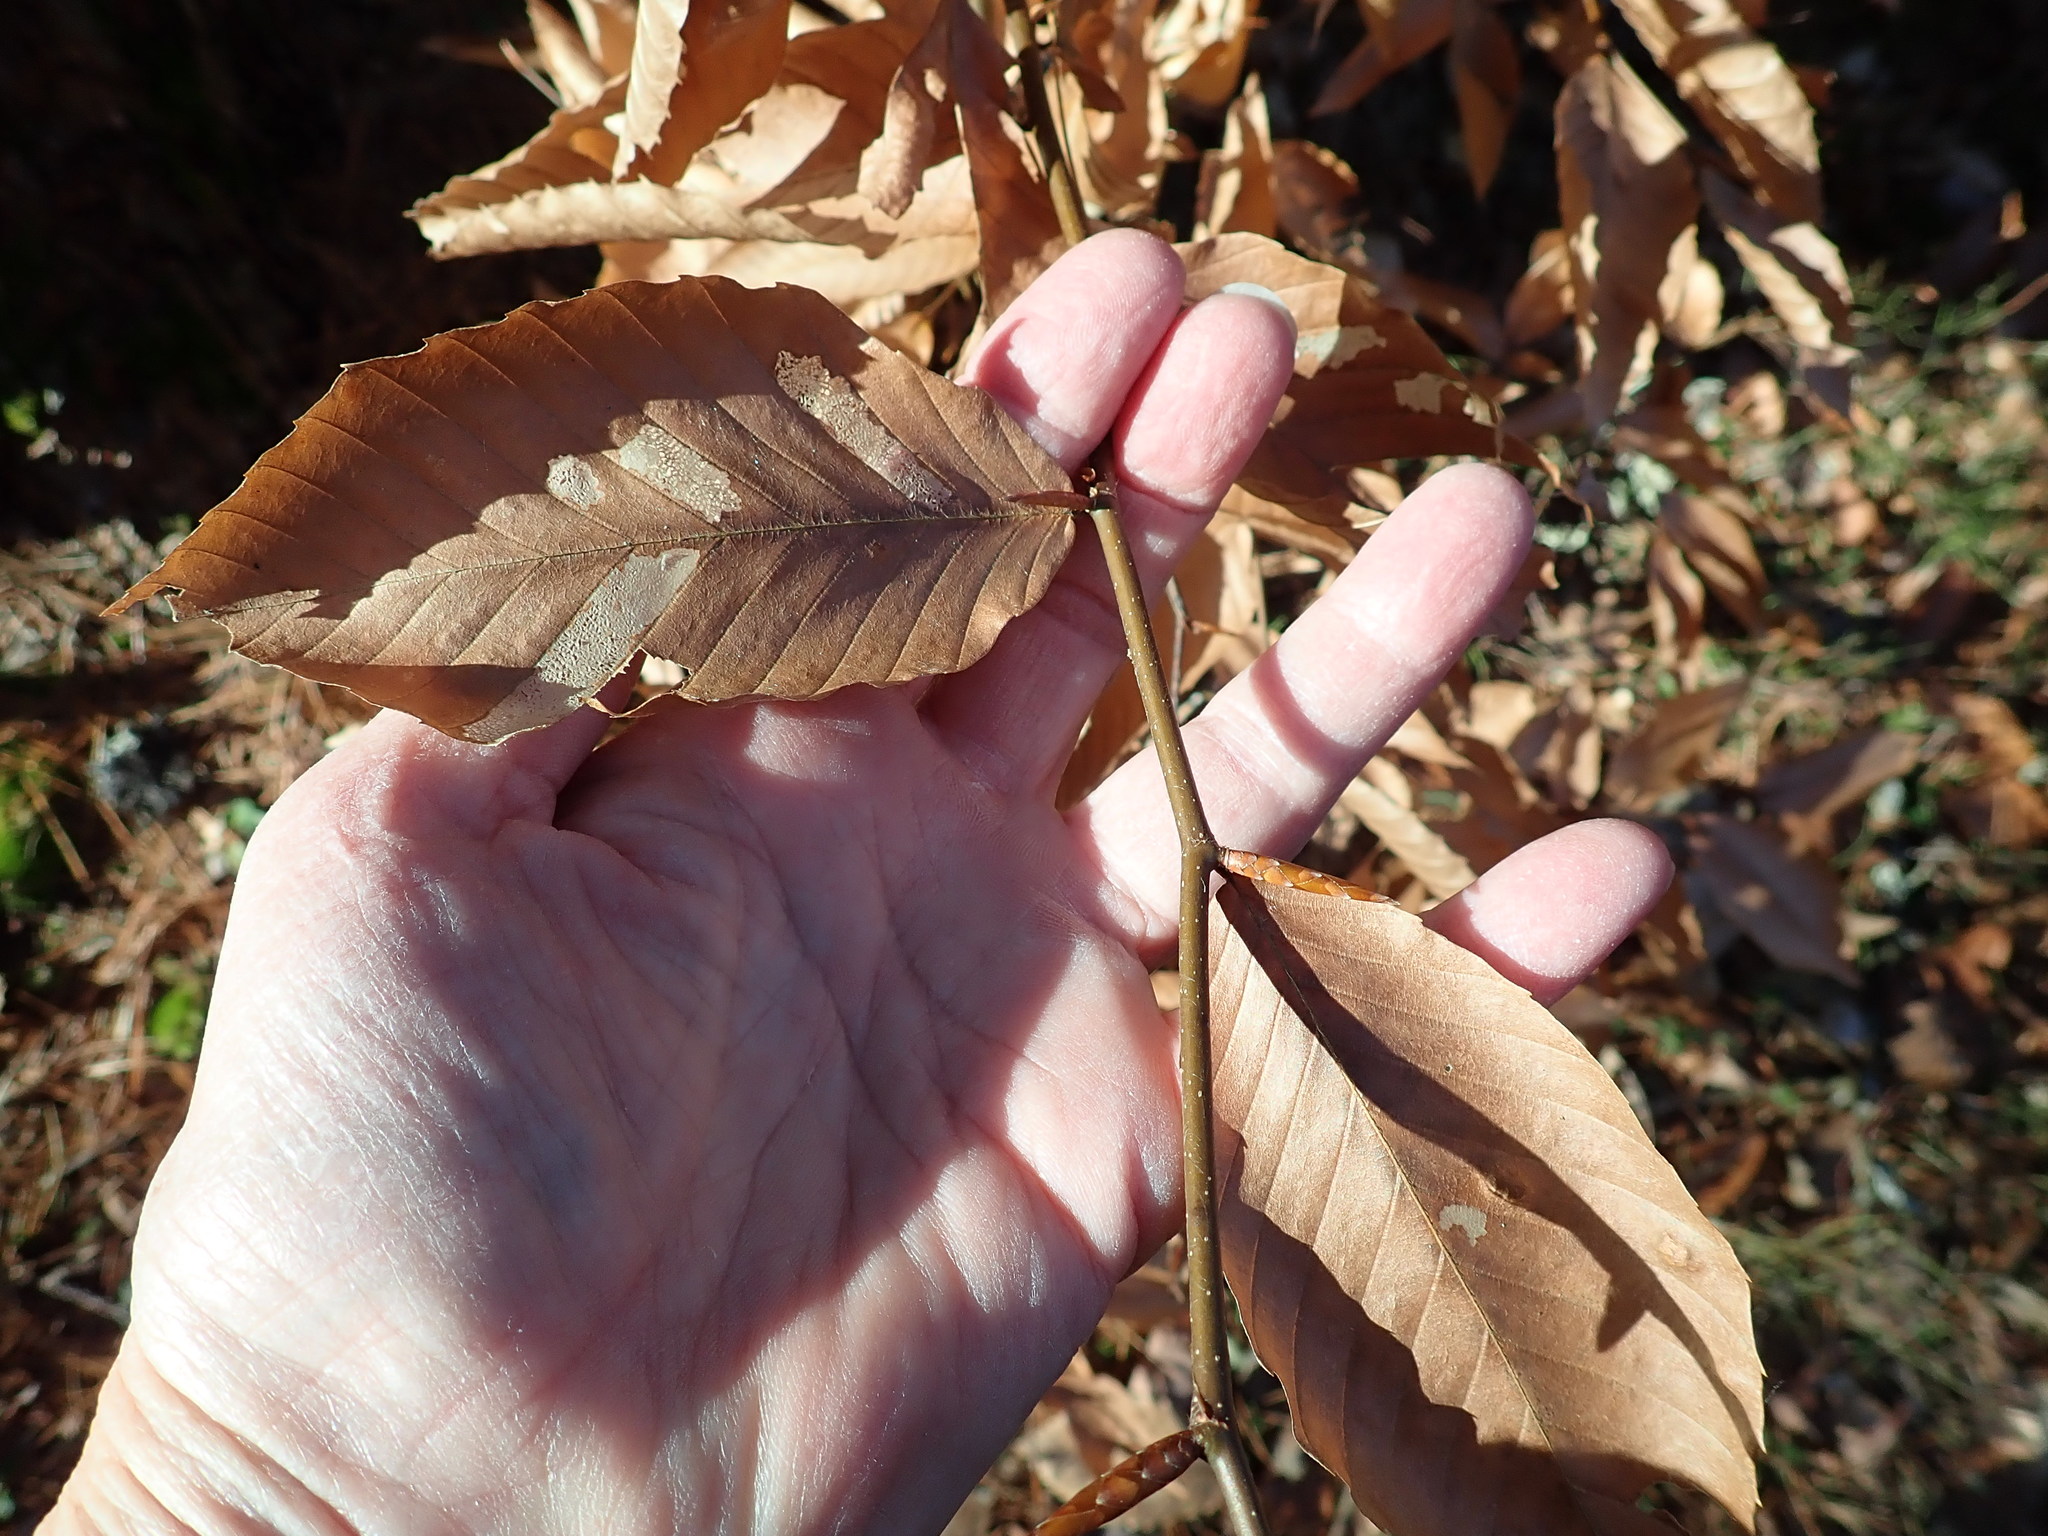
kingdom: Plantae
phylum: Tracheophyta
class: Magnoliopsida
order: Fagales
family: Fagaceae
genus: Fagus
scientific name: Fagus grandifolia
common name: American beech
